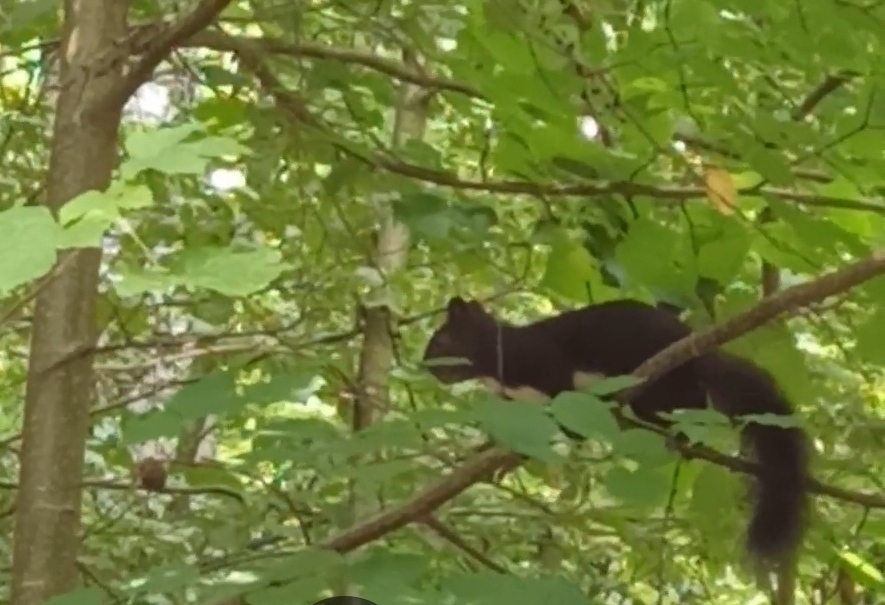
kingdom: Animalia
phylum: Chordata
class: Mammalia
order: Rodentia
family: Sciuridae
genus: Sciurus
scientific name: Sciurus vulgaris
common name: Eurasian red squirrel
